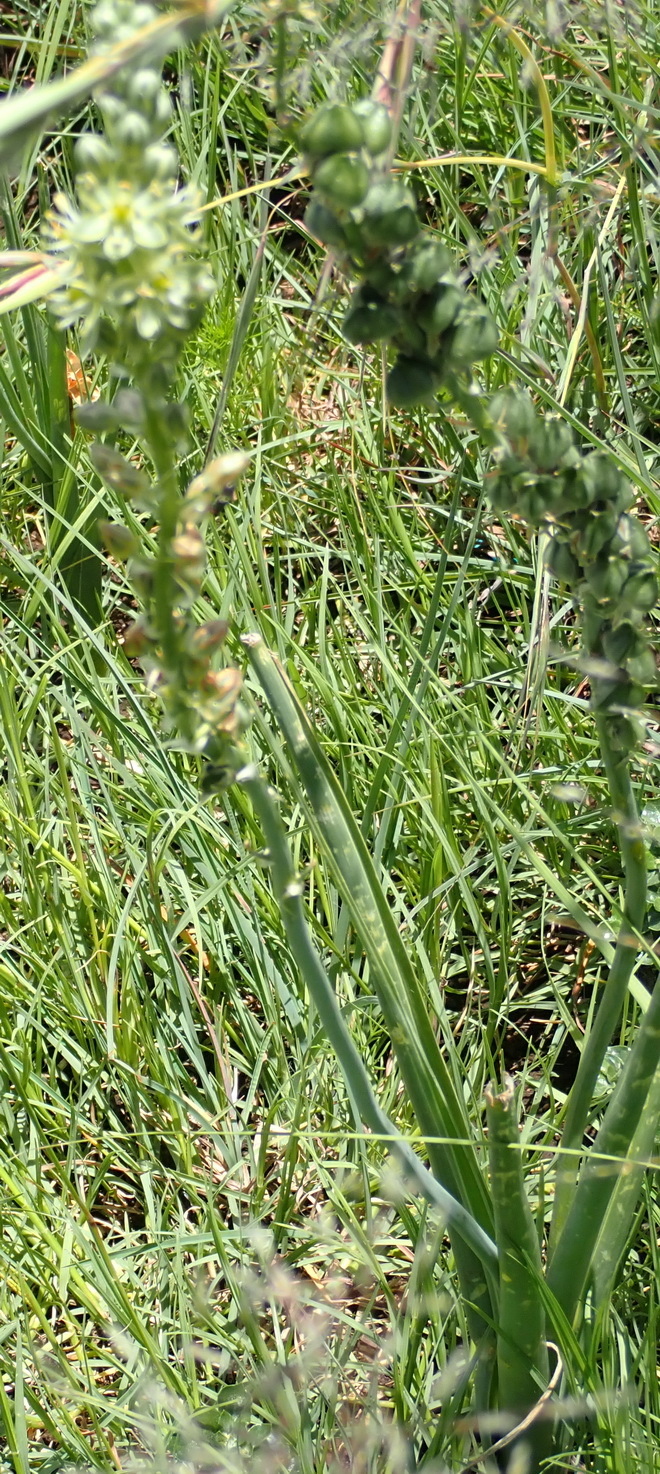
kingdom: Plantae
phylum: Tracheophyta
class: Liliopsida
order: Asparagales
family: Asparagaceae
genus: Albuca
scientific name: Albuca virens
